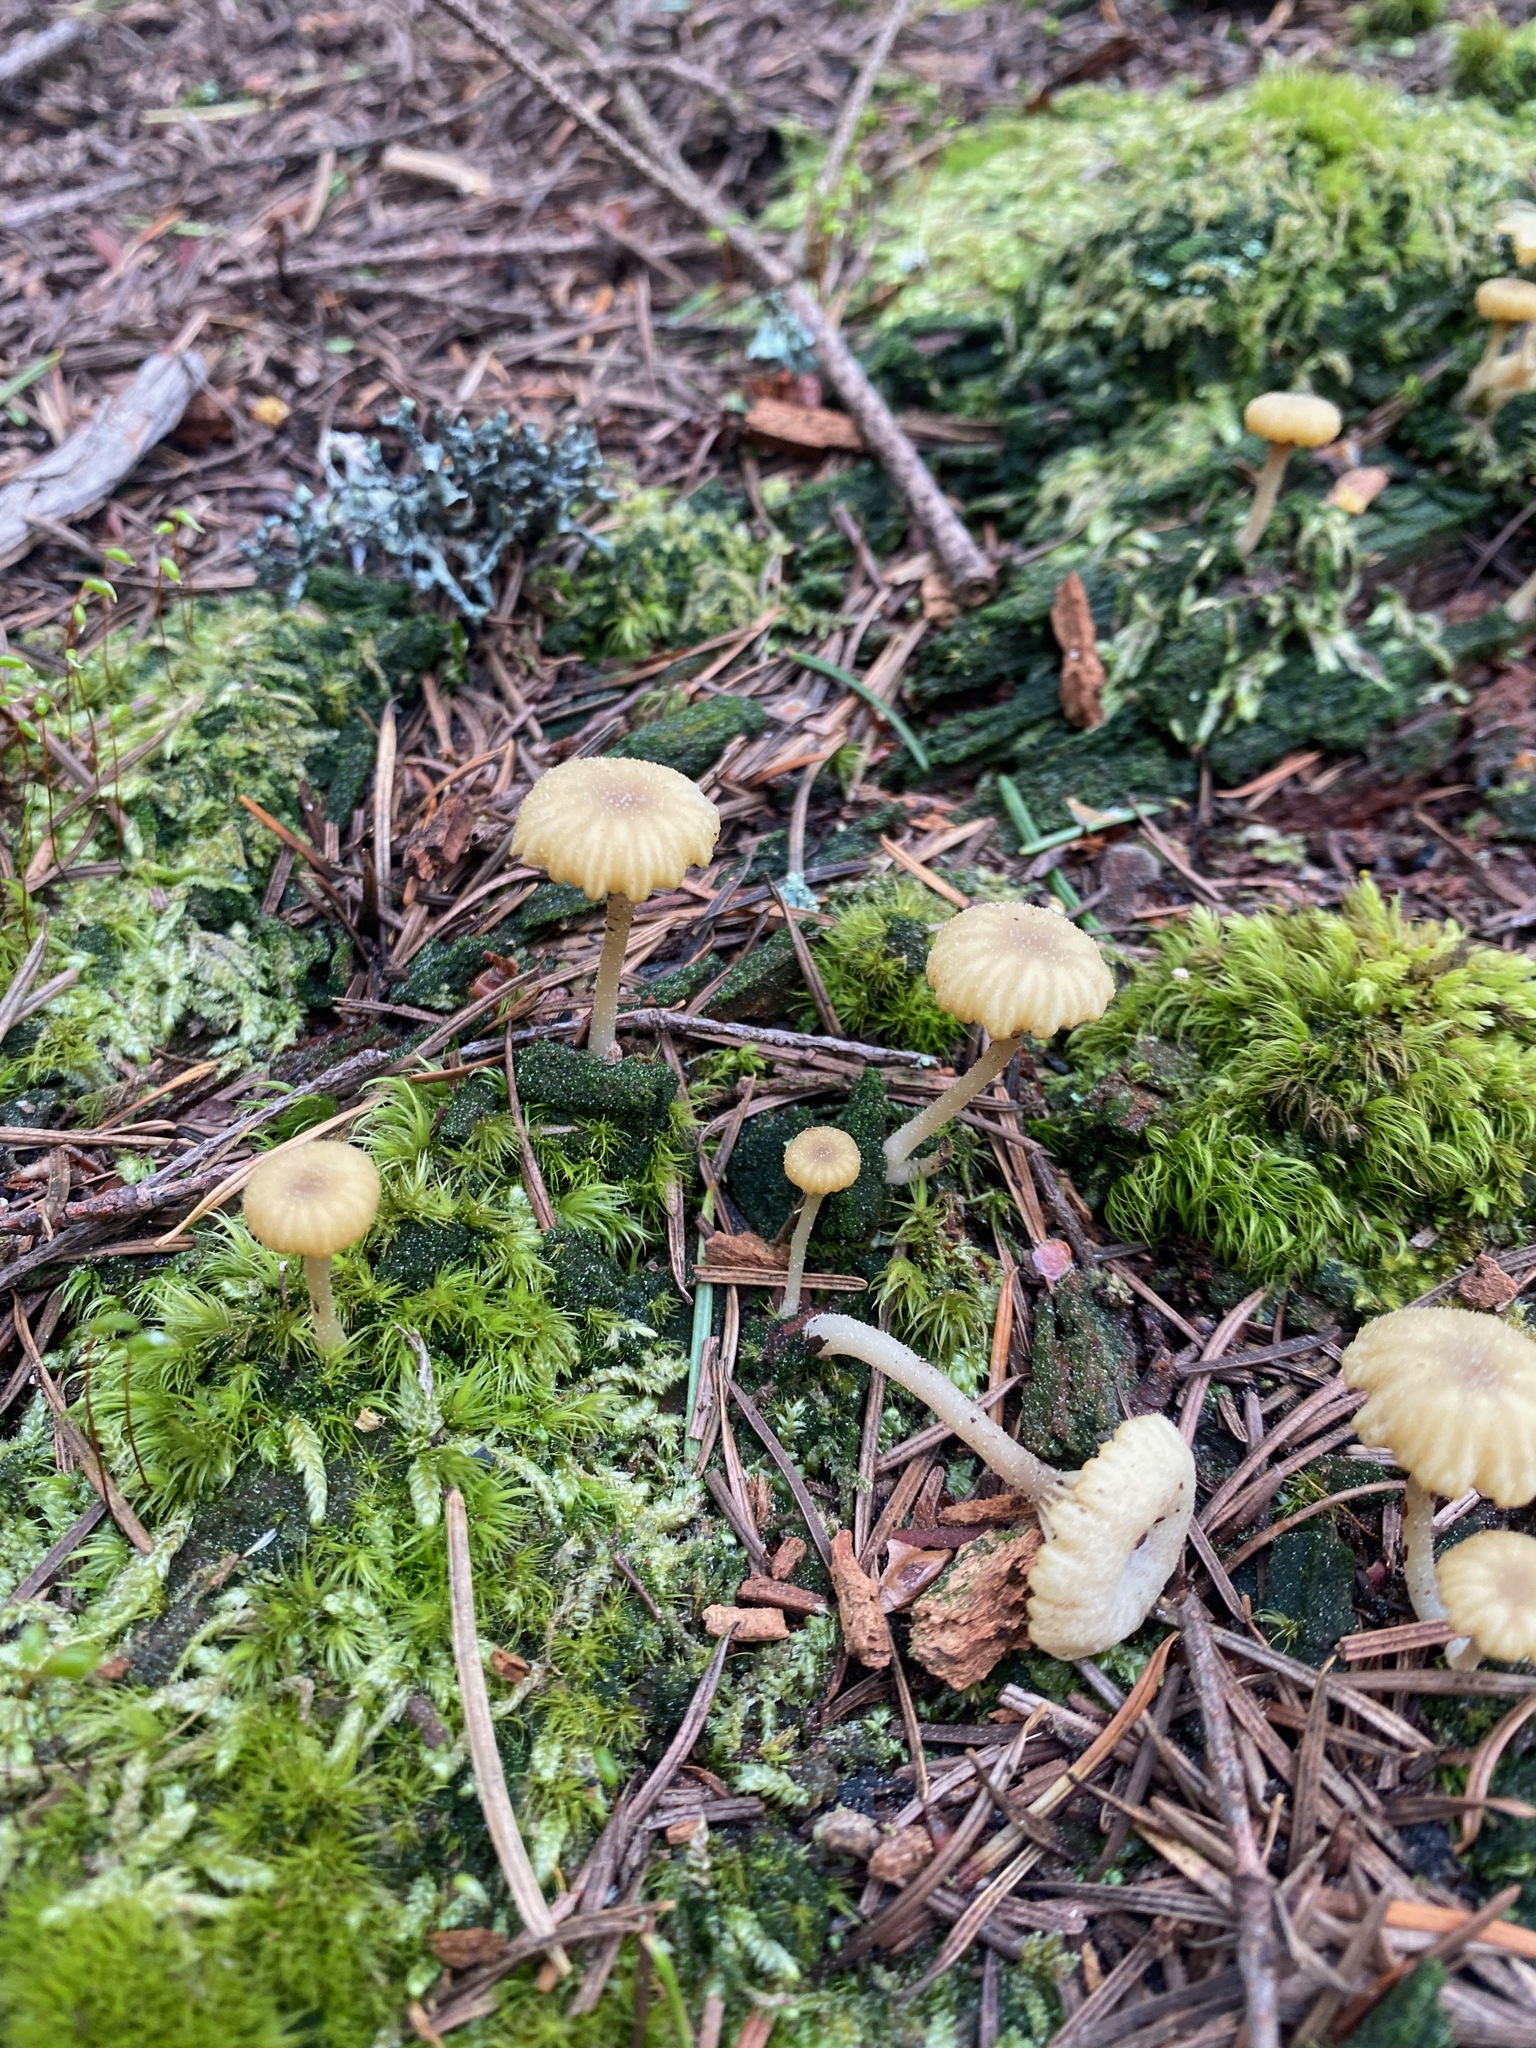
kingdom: Fungi
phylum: Basidiomycota
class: Agaricomycetes
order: Agaricales
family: Hygrophoraceae
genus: Lichenomphalia
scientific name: Lichenomphalia
